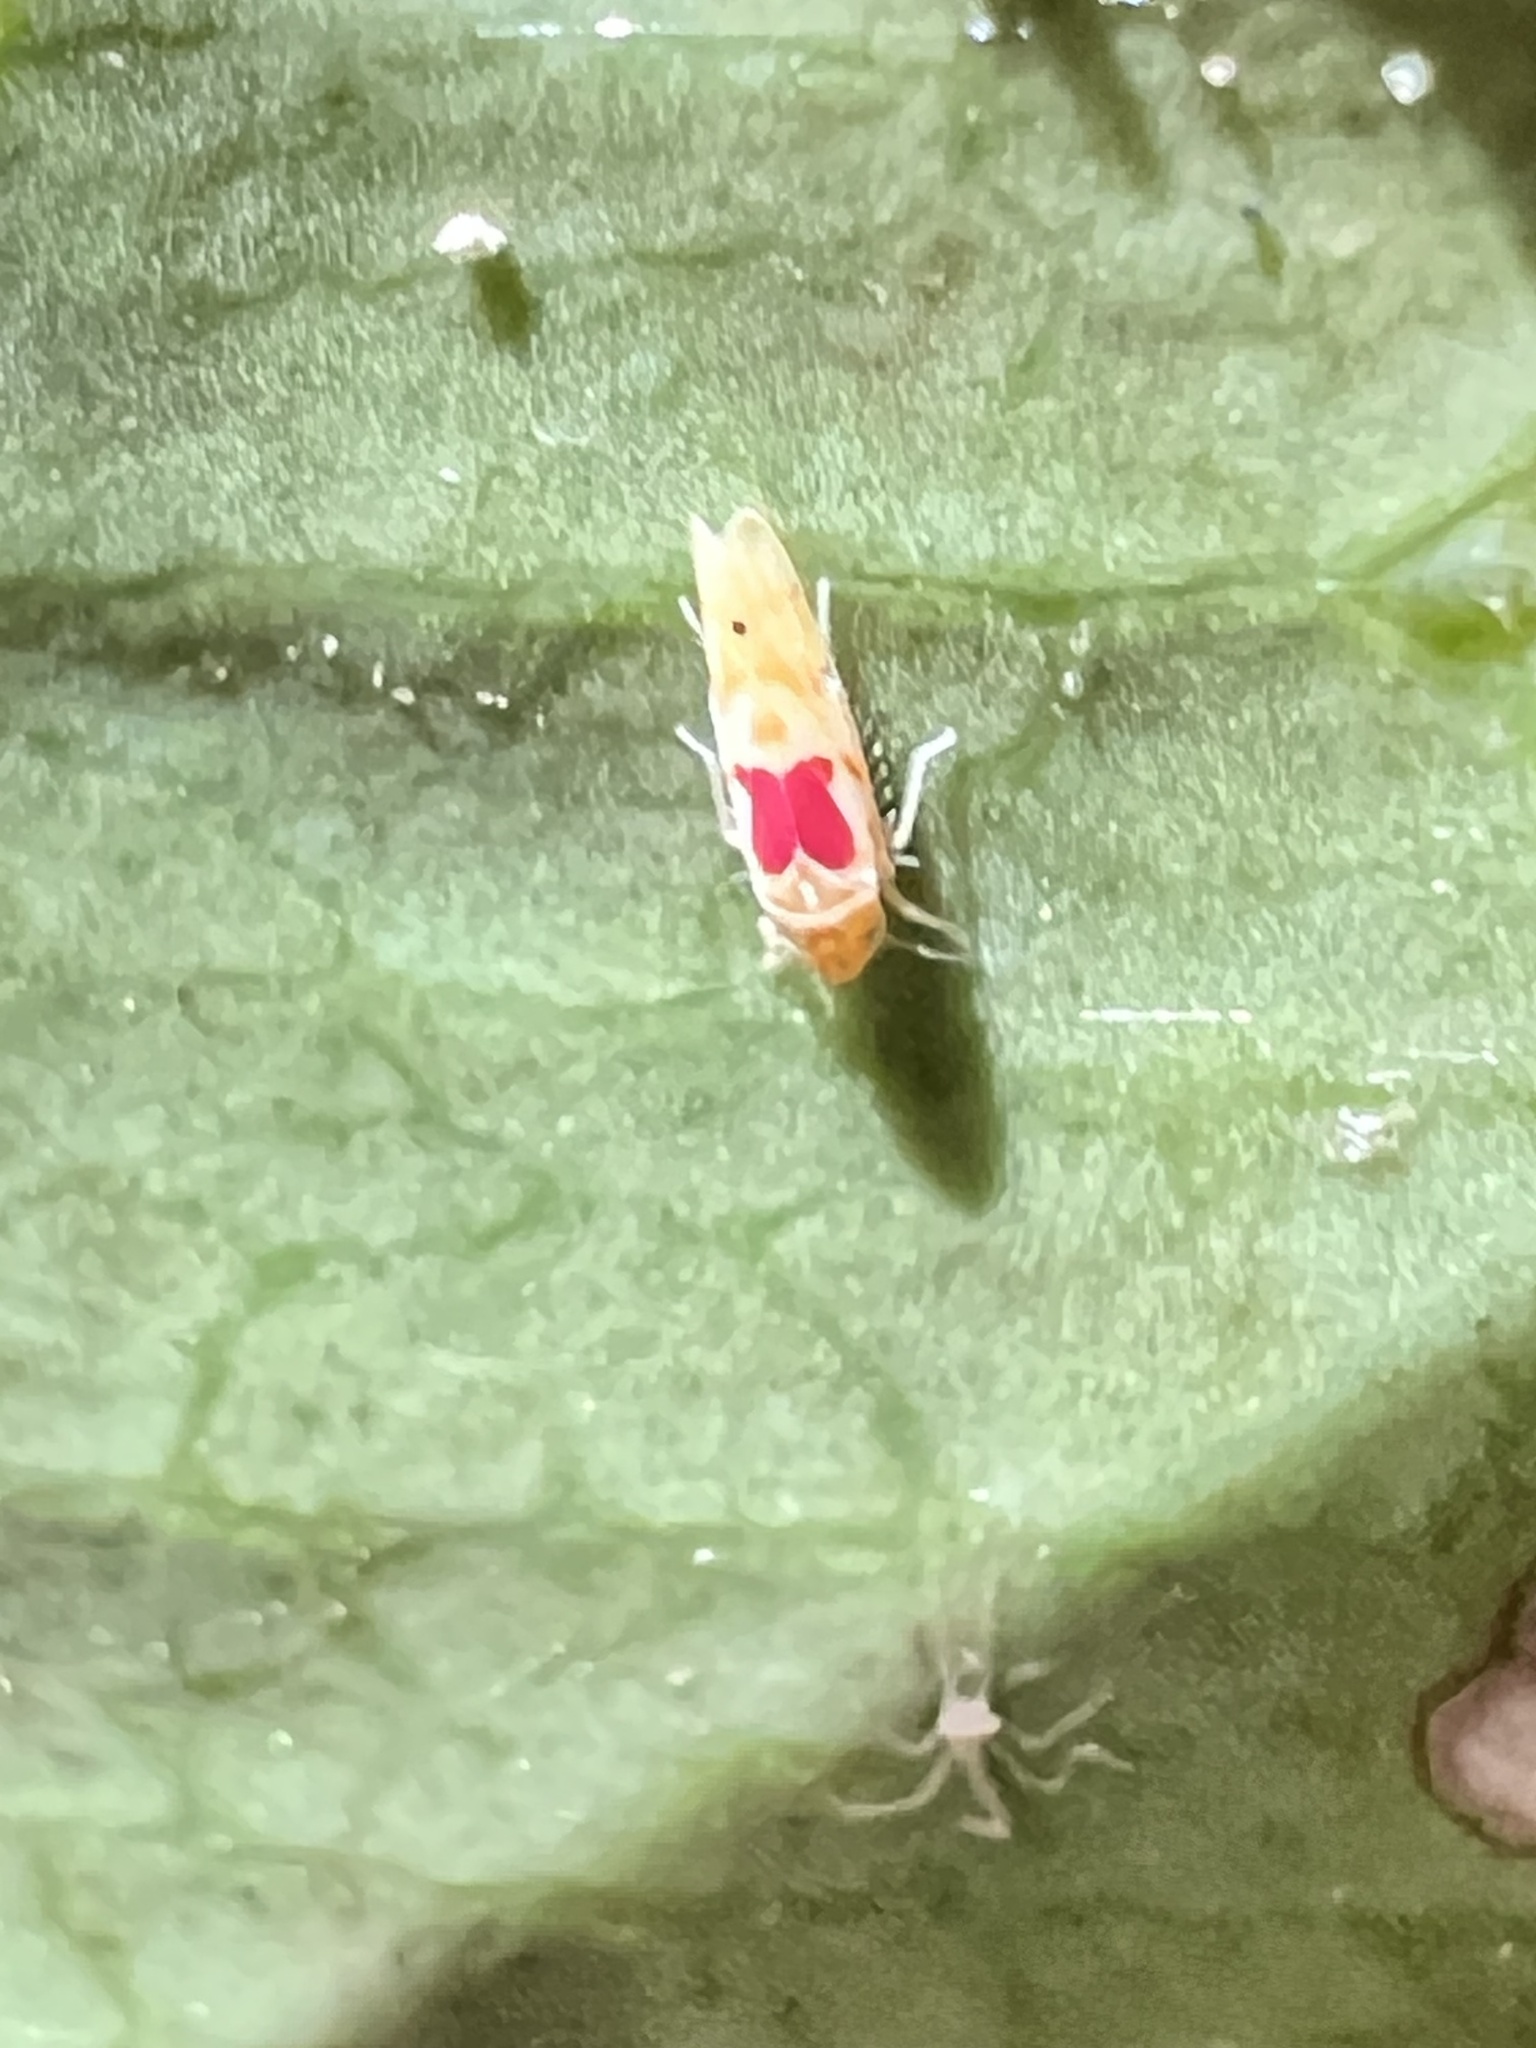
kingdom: Animalia
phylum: Arthropoda
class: Insecta
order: Hemiptera
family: Cicadellidae
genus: Eratoneura
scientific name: Eratoneura bella
